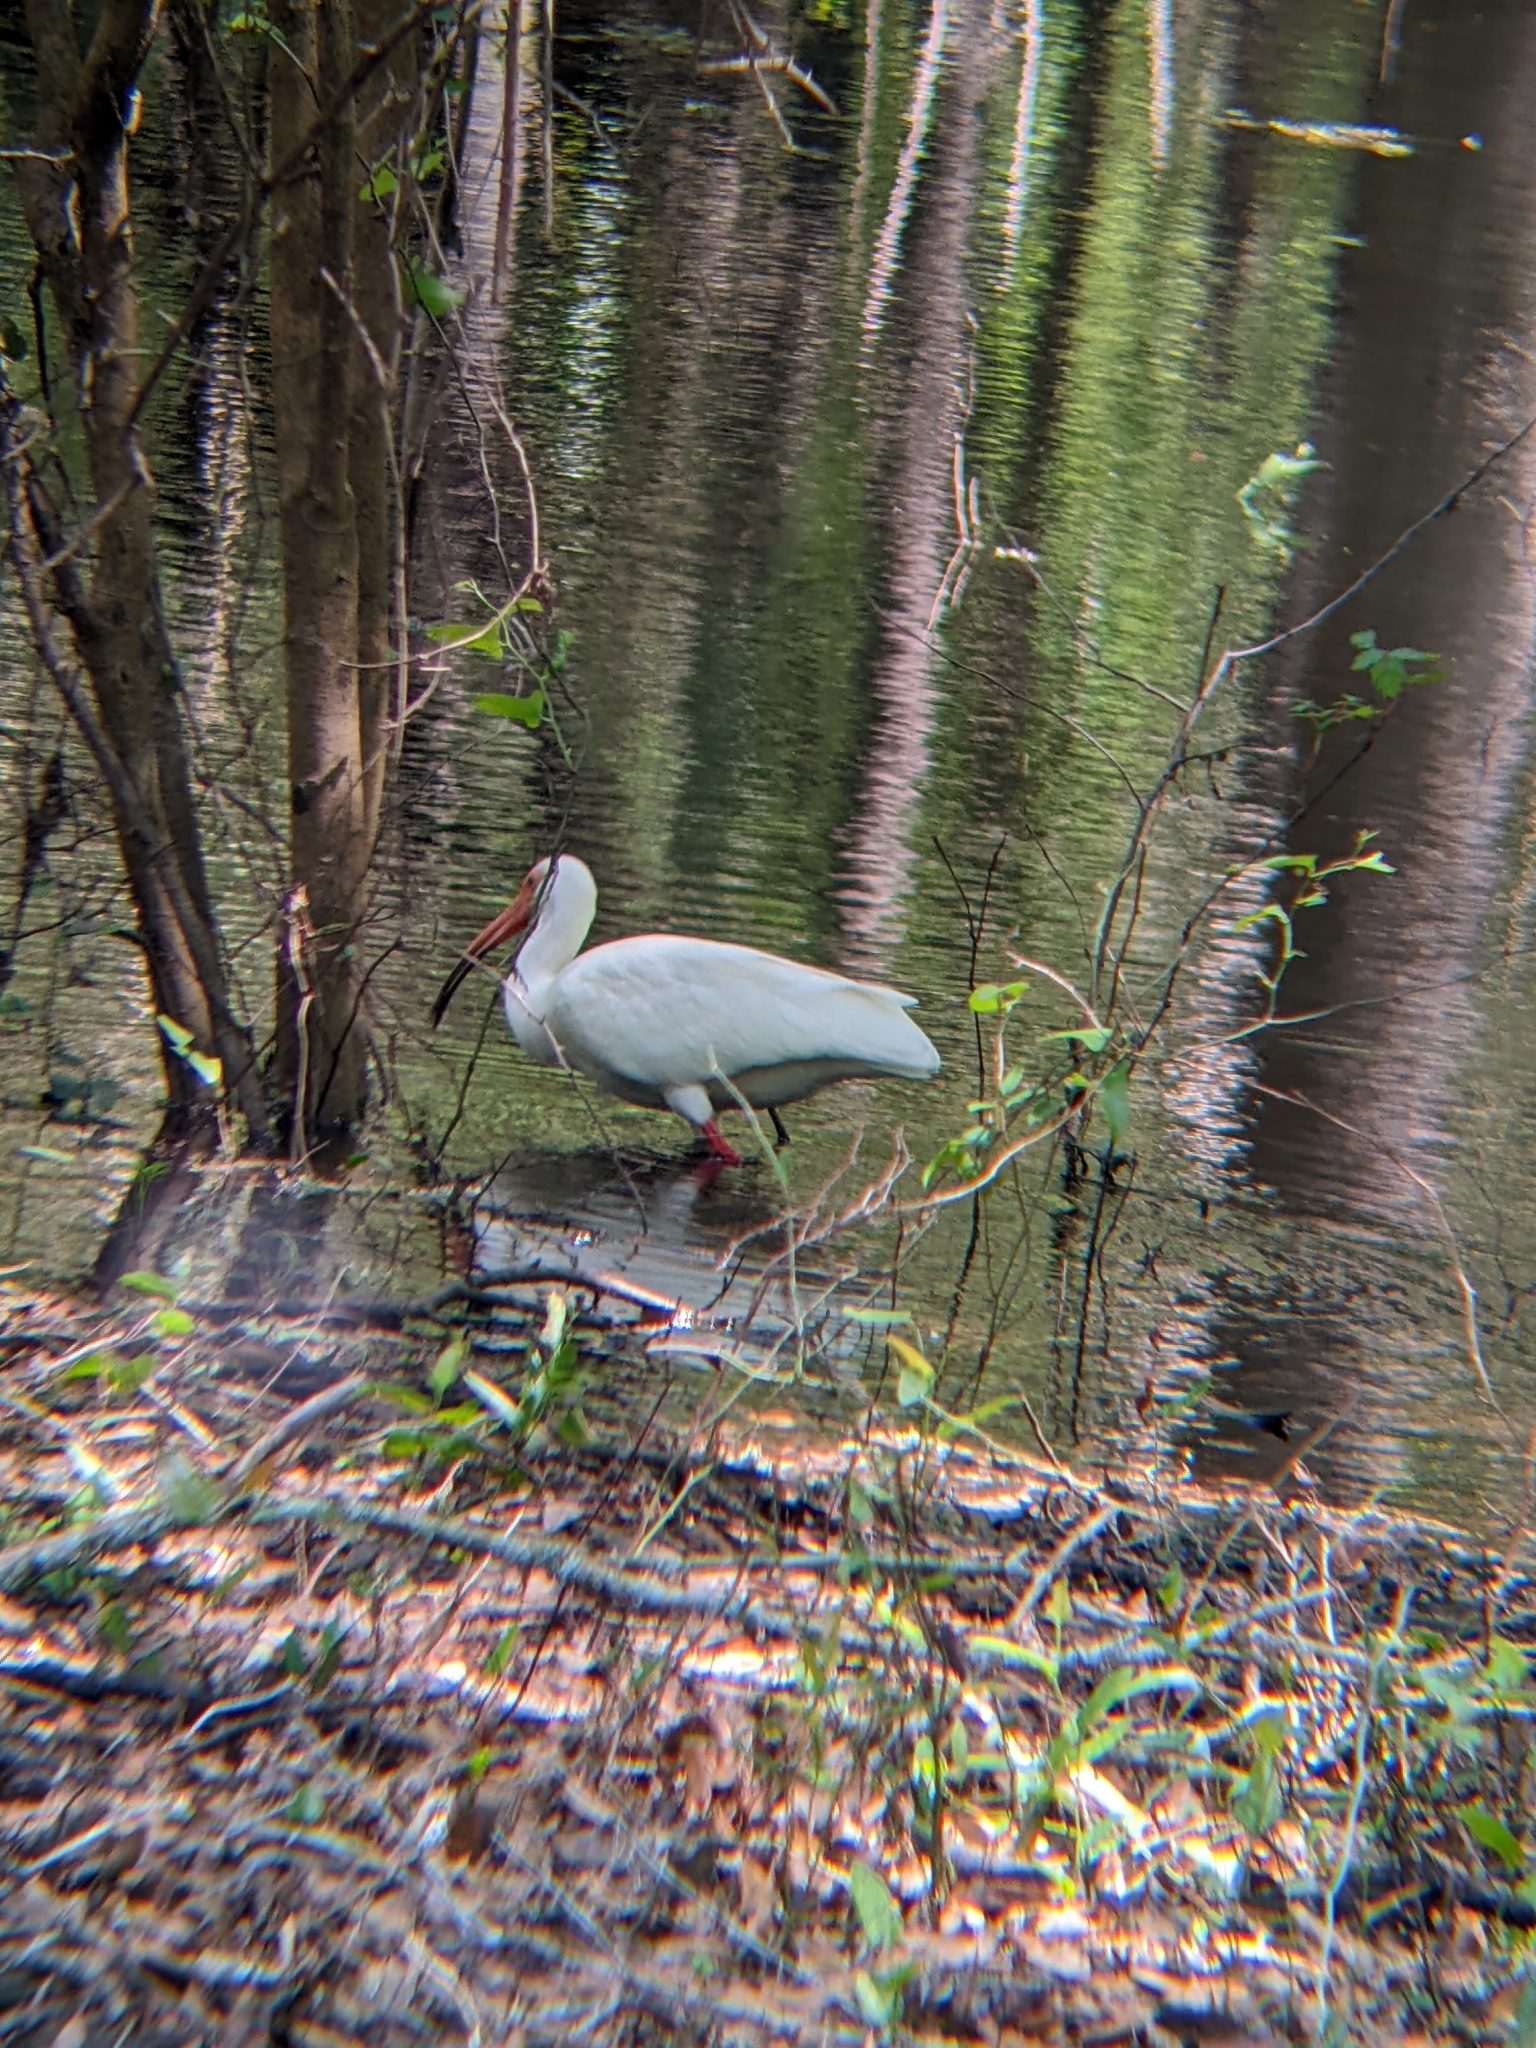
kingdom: Animalia
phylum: Chordata
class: Aves
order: Pelecaniformes
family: Threskiornithidae
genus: Eudocimus
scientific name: Eudocimus albus
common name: White ibis
